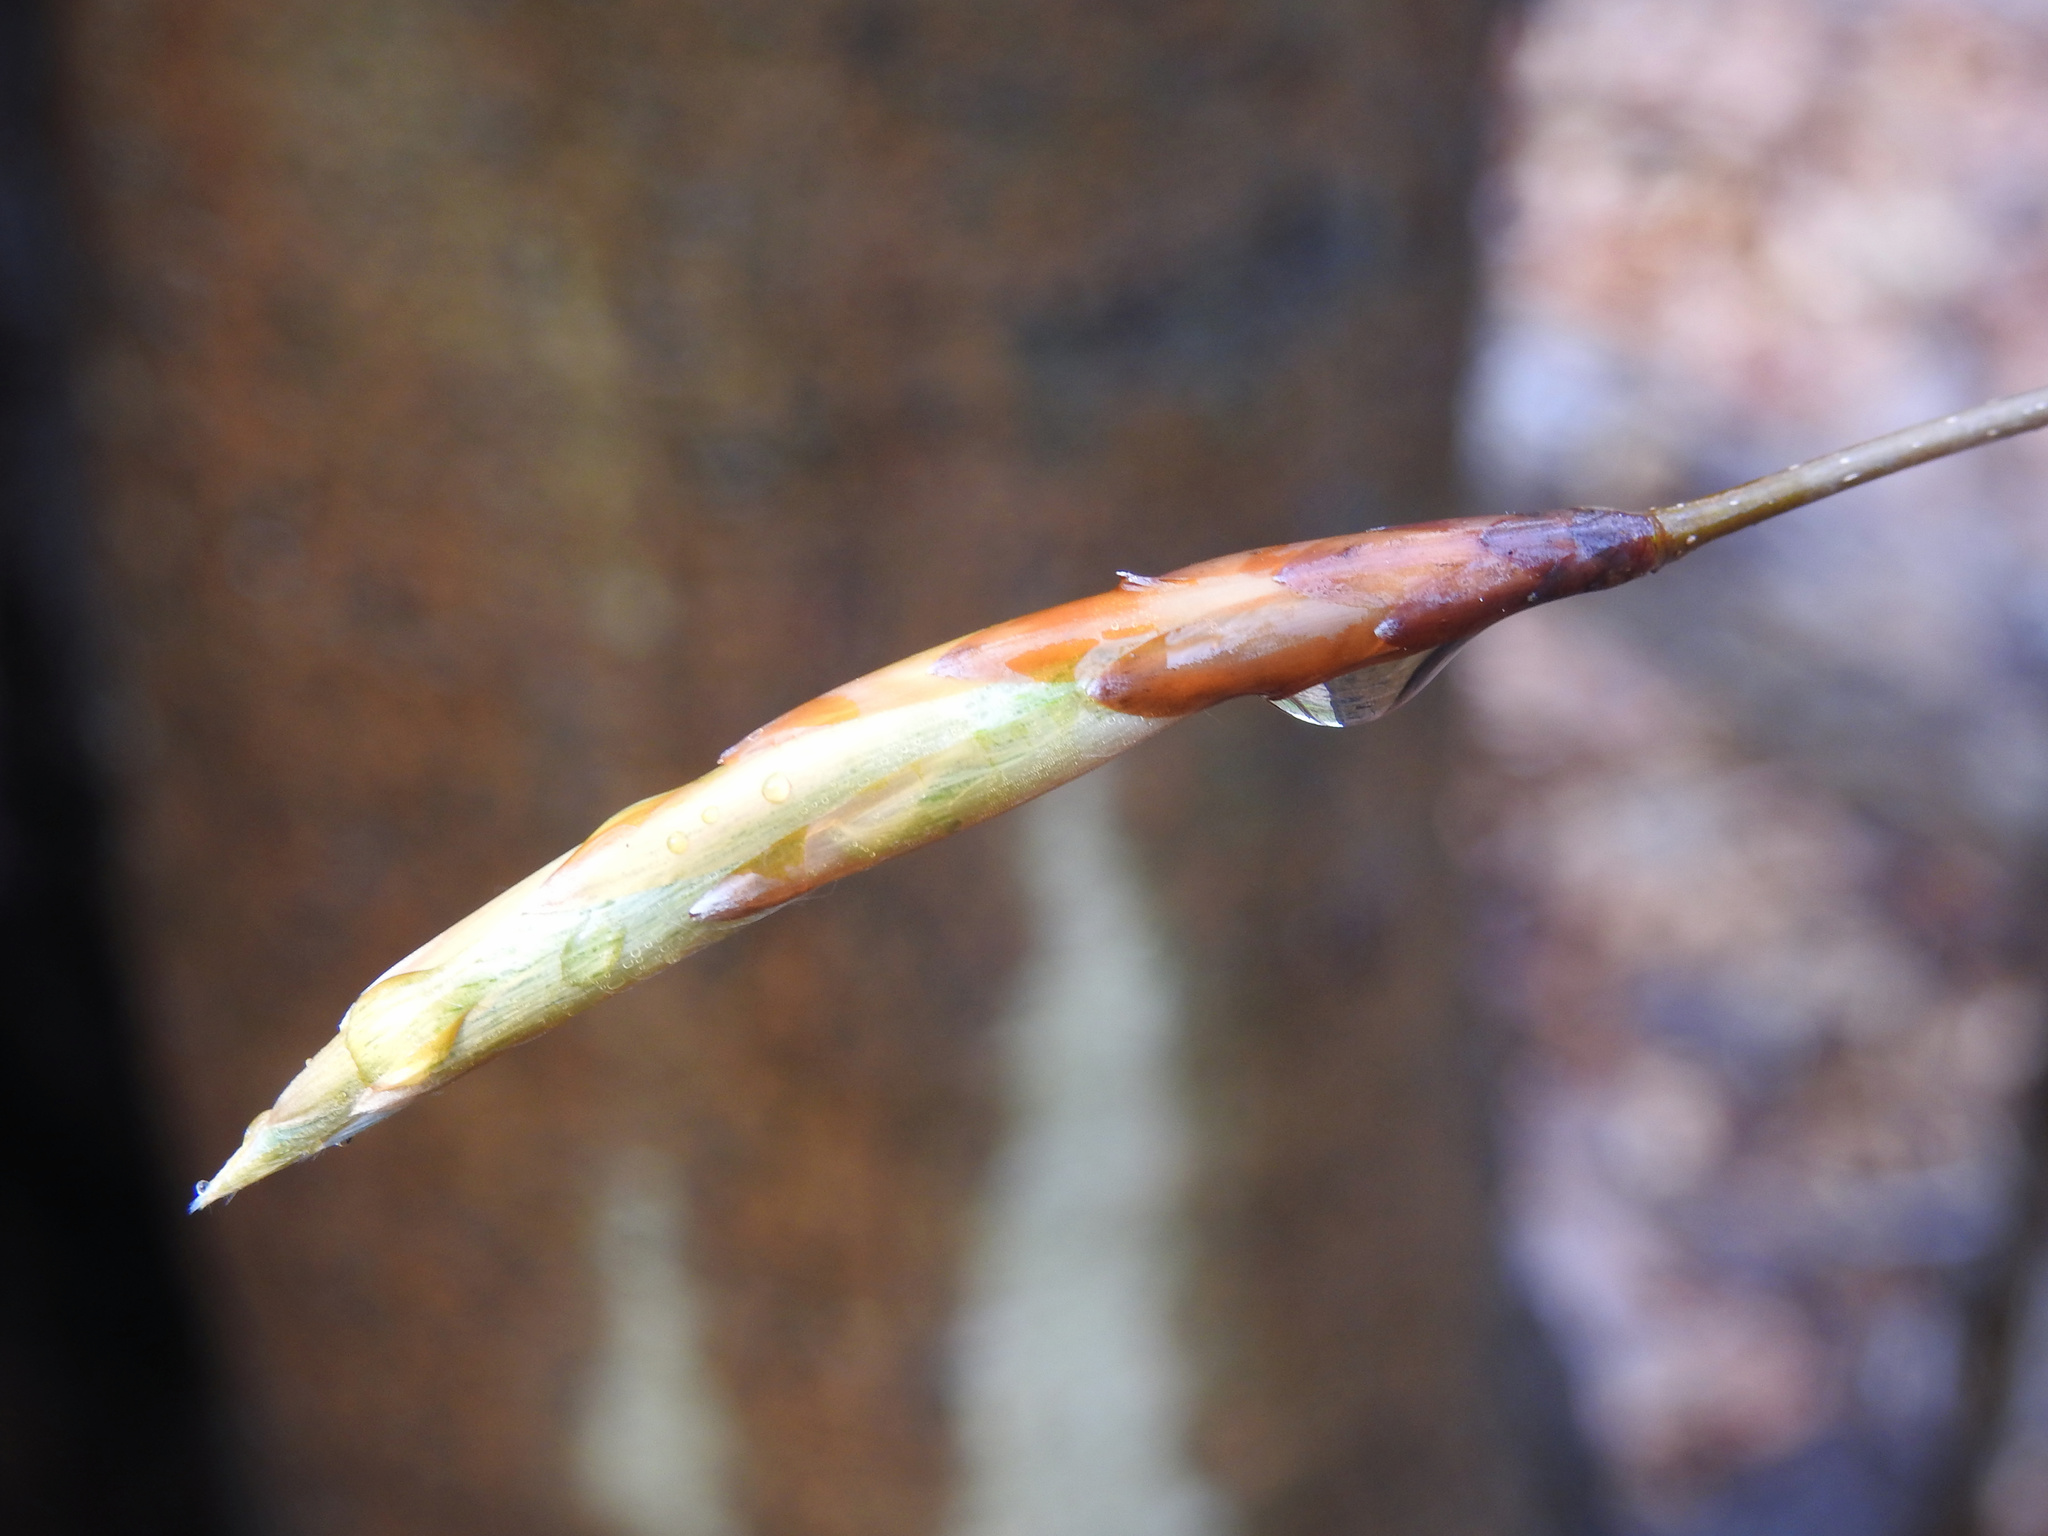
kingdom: Plantae
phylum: Tracheophyta
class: Magnoliopsida
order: Fagales
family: Fagaceae
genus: Fagus
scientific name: Fagus grandifolia
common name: American beech
